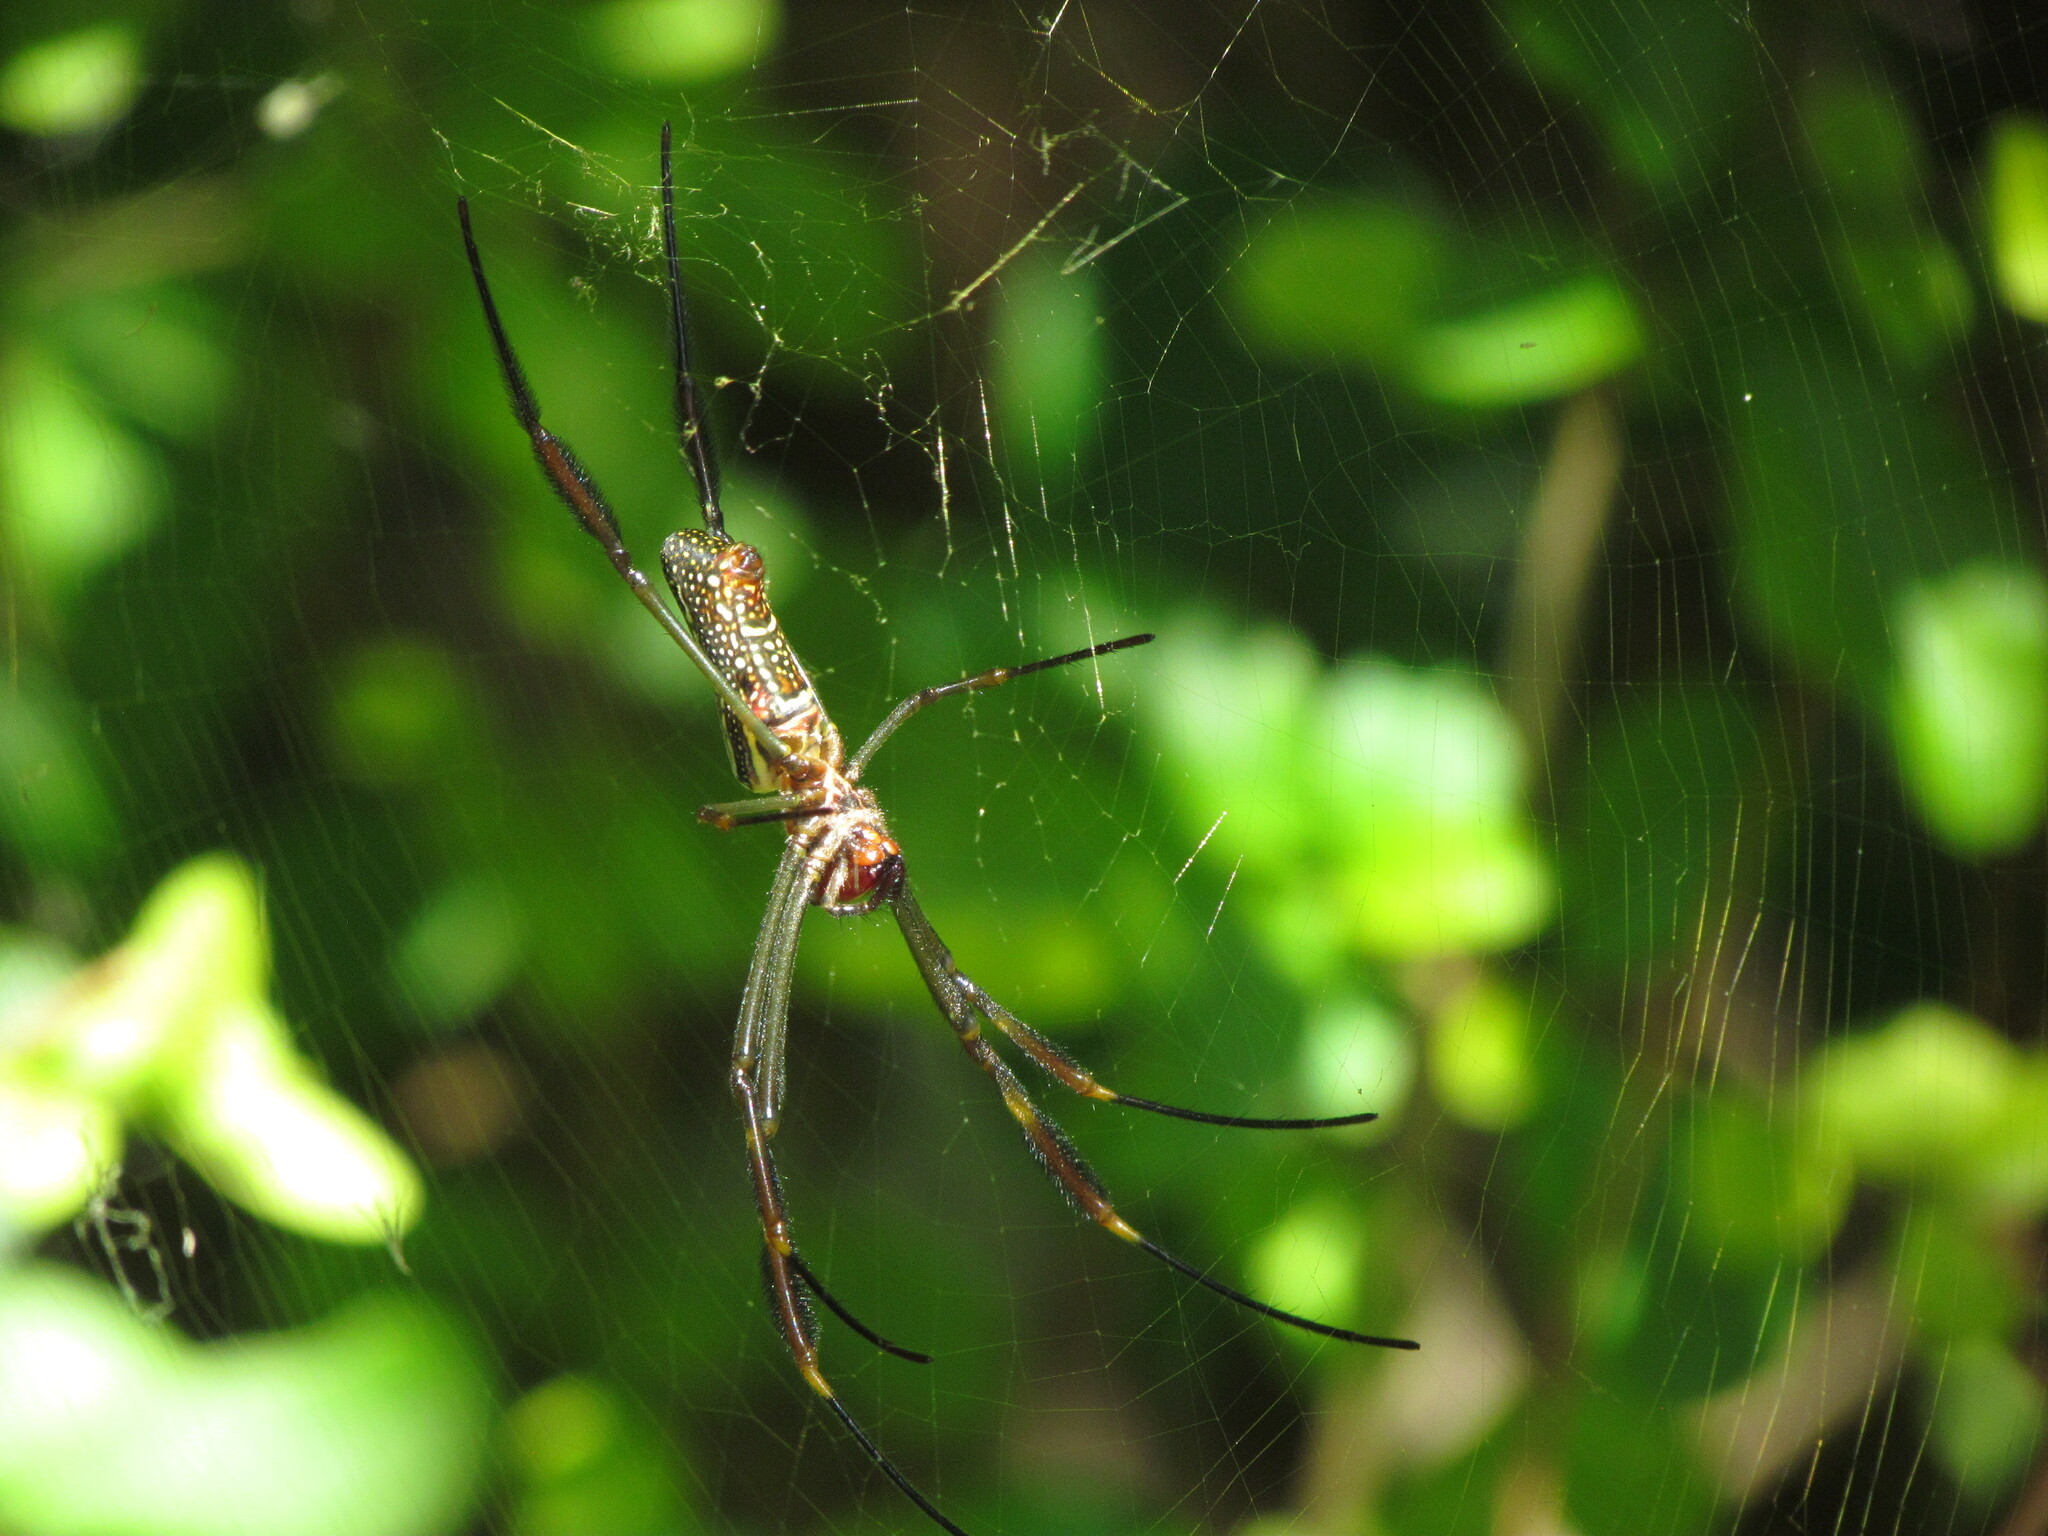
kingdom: Animalia
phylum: Arthropoda
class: Arachnida
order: Araneae
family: Araneidae
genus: Trichonephila
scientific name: Trichonephila clavipes
